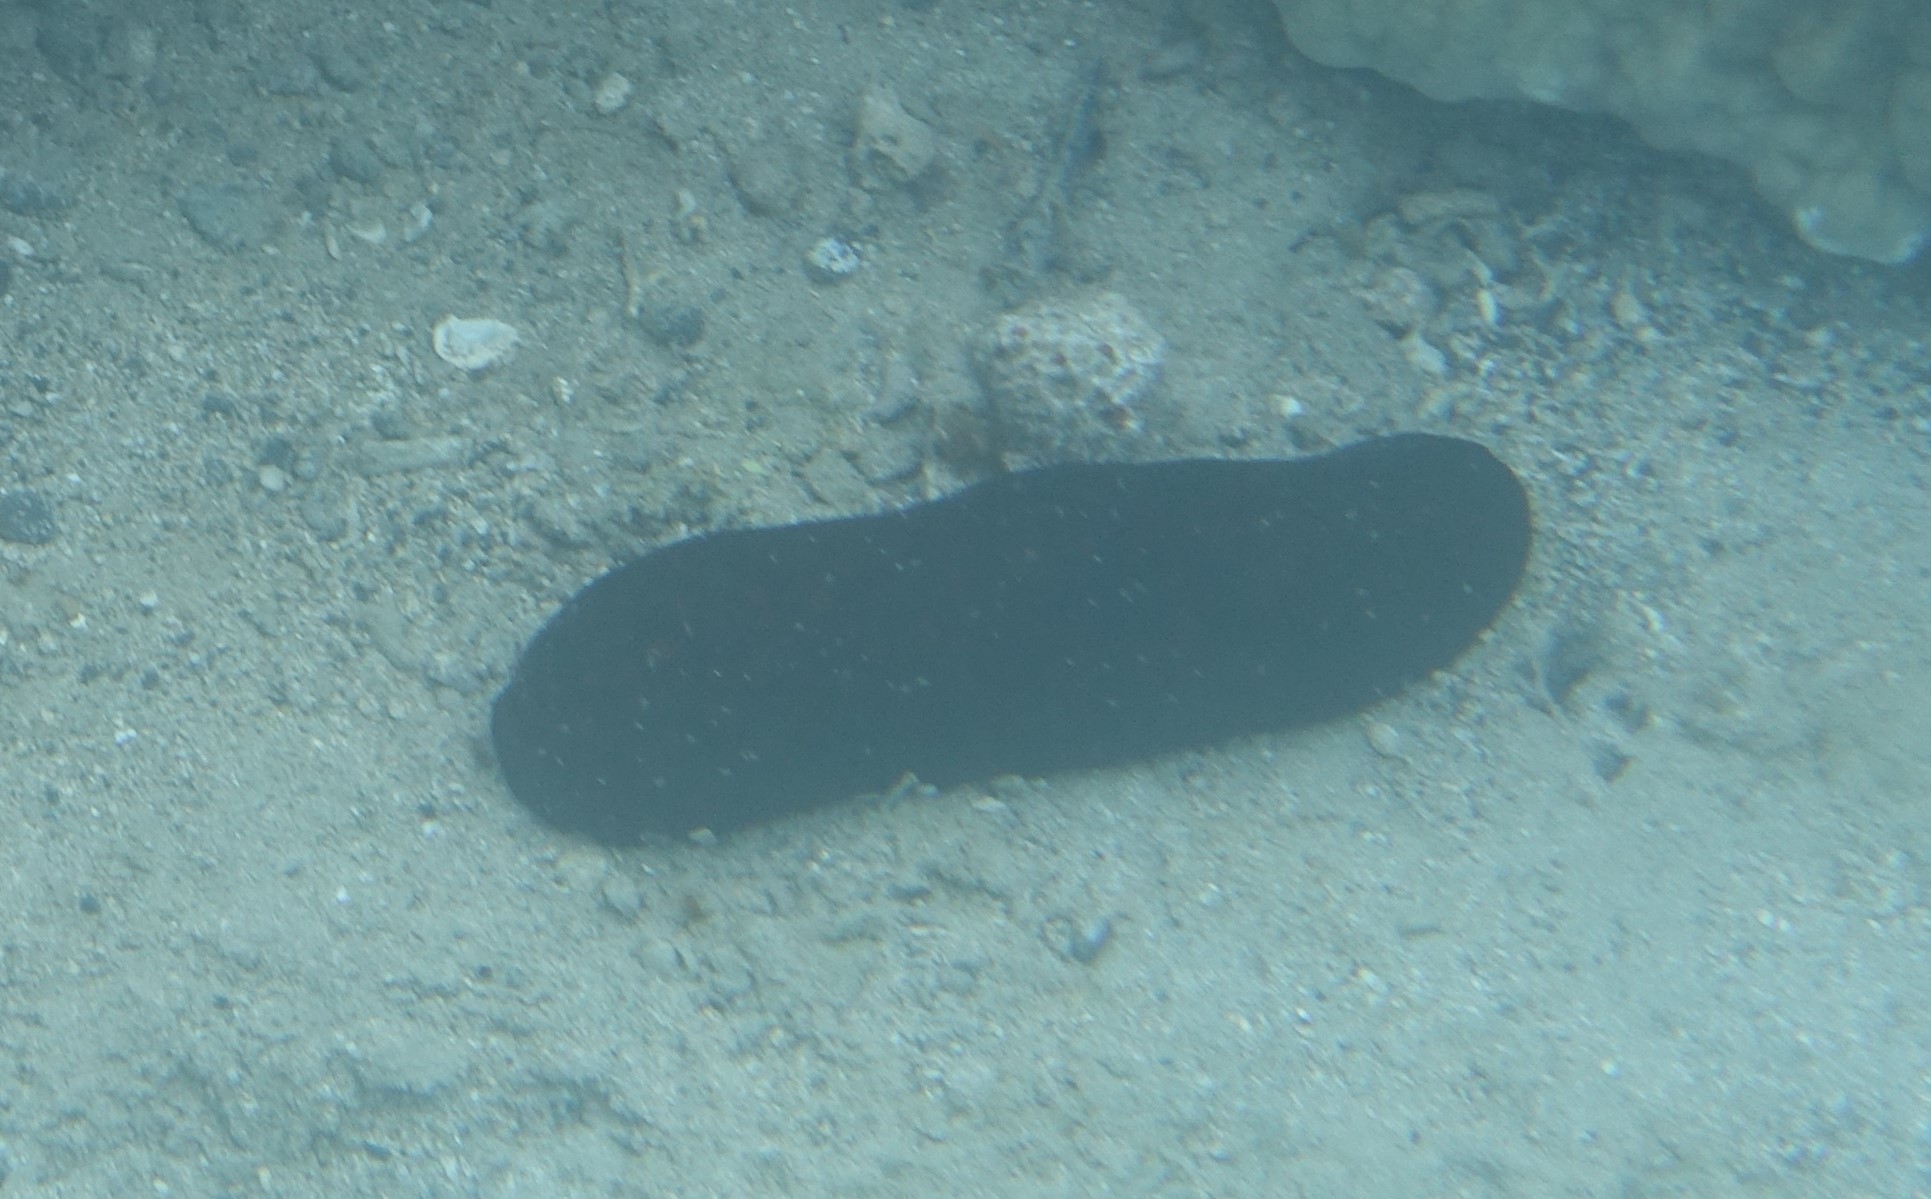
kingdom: Animalia
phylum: Echinodermata
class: Holothuroidea
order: Holothuriida
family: Holothuriidae
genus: Bohadschia
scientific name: Bohadschia atra
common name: Tigerfish
